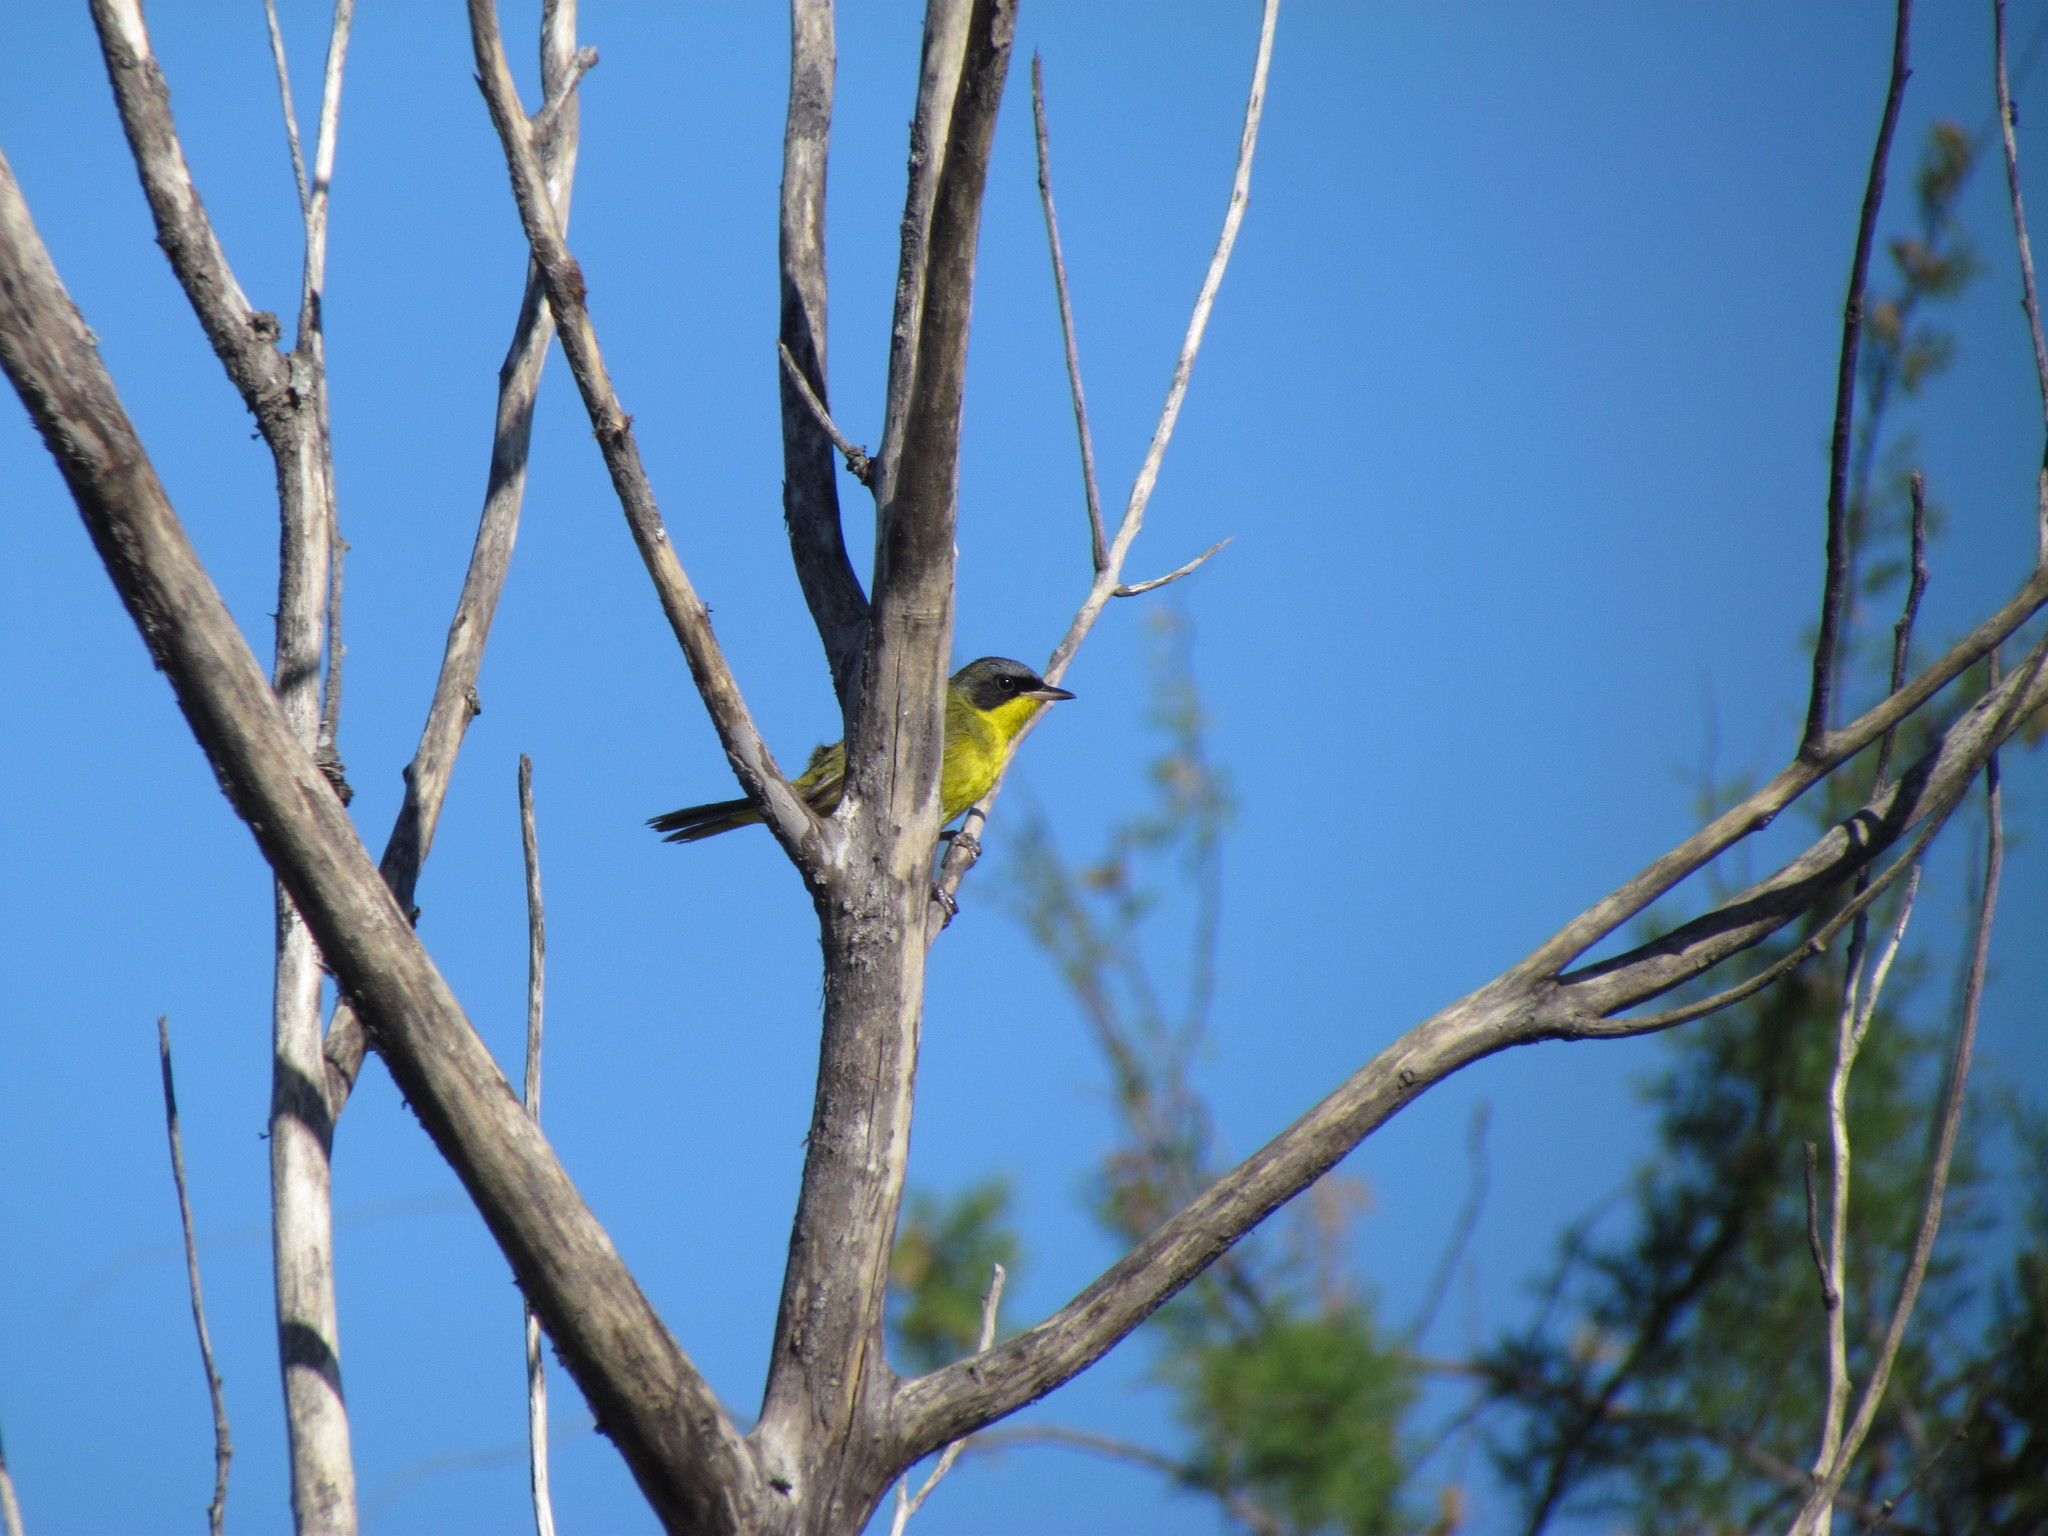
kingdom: Animalia
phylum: Chordata
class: Aves
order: Passeriformes
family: Parulidae
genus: Geothlypis
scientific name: Geothlypis velata
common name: Southern yellowthroat
